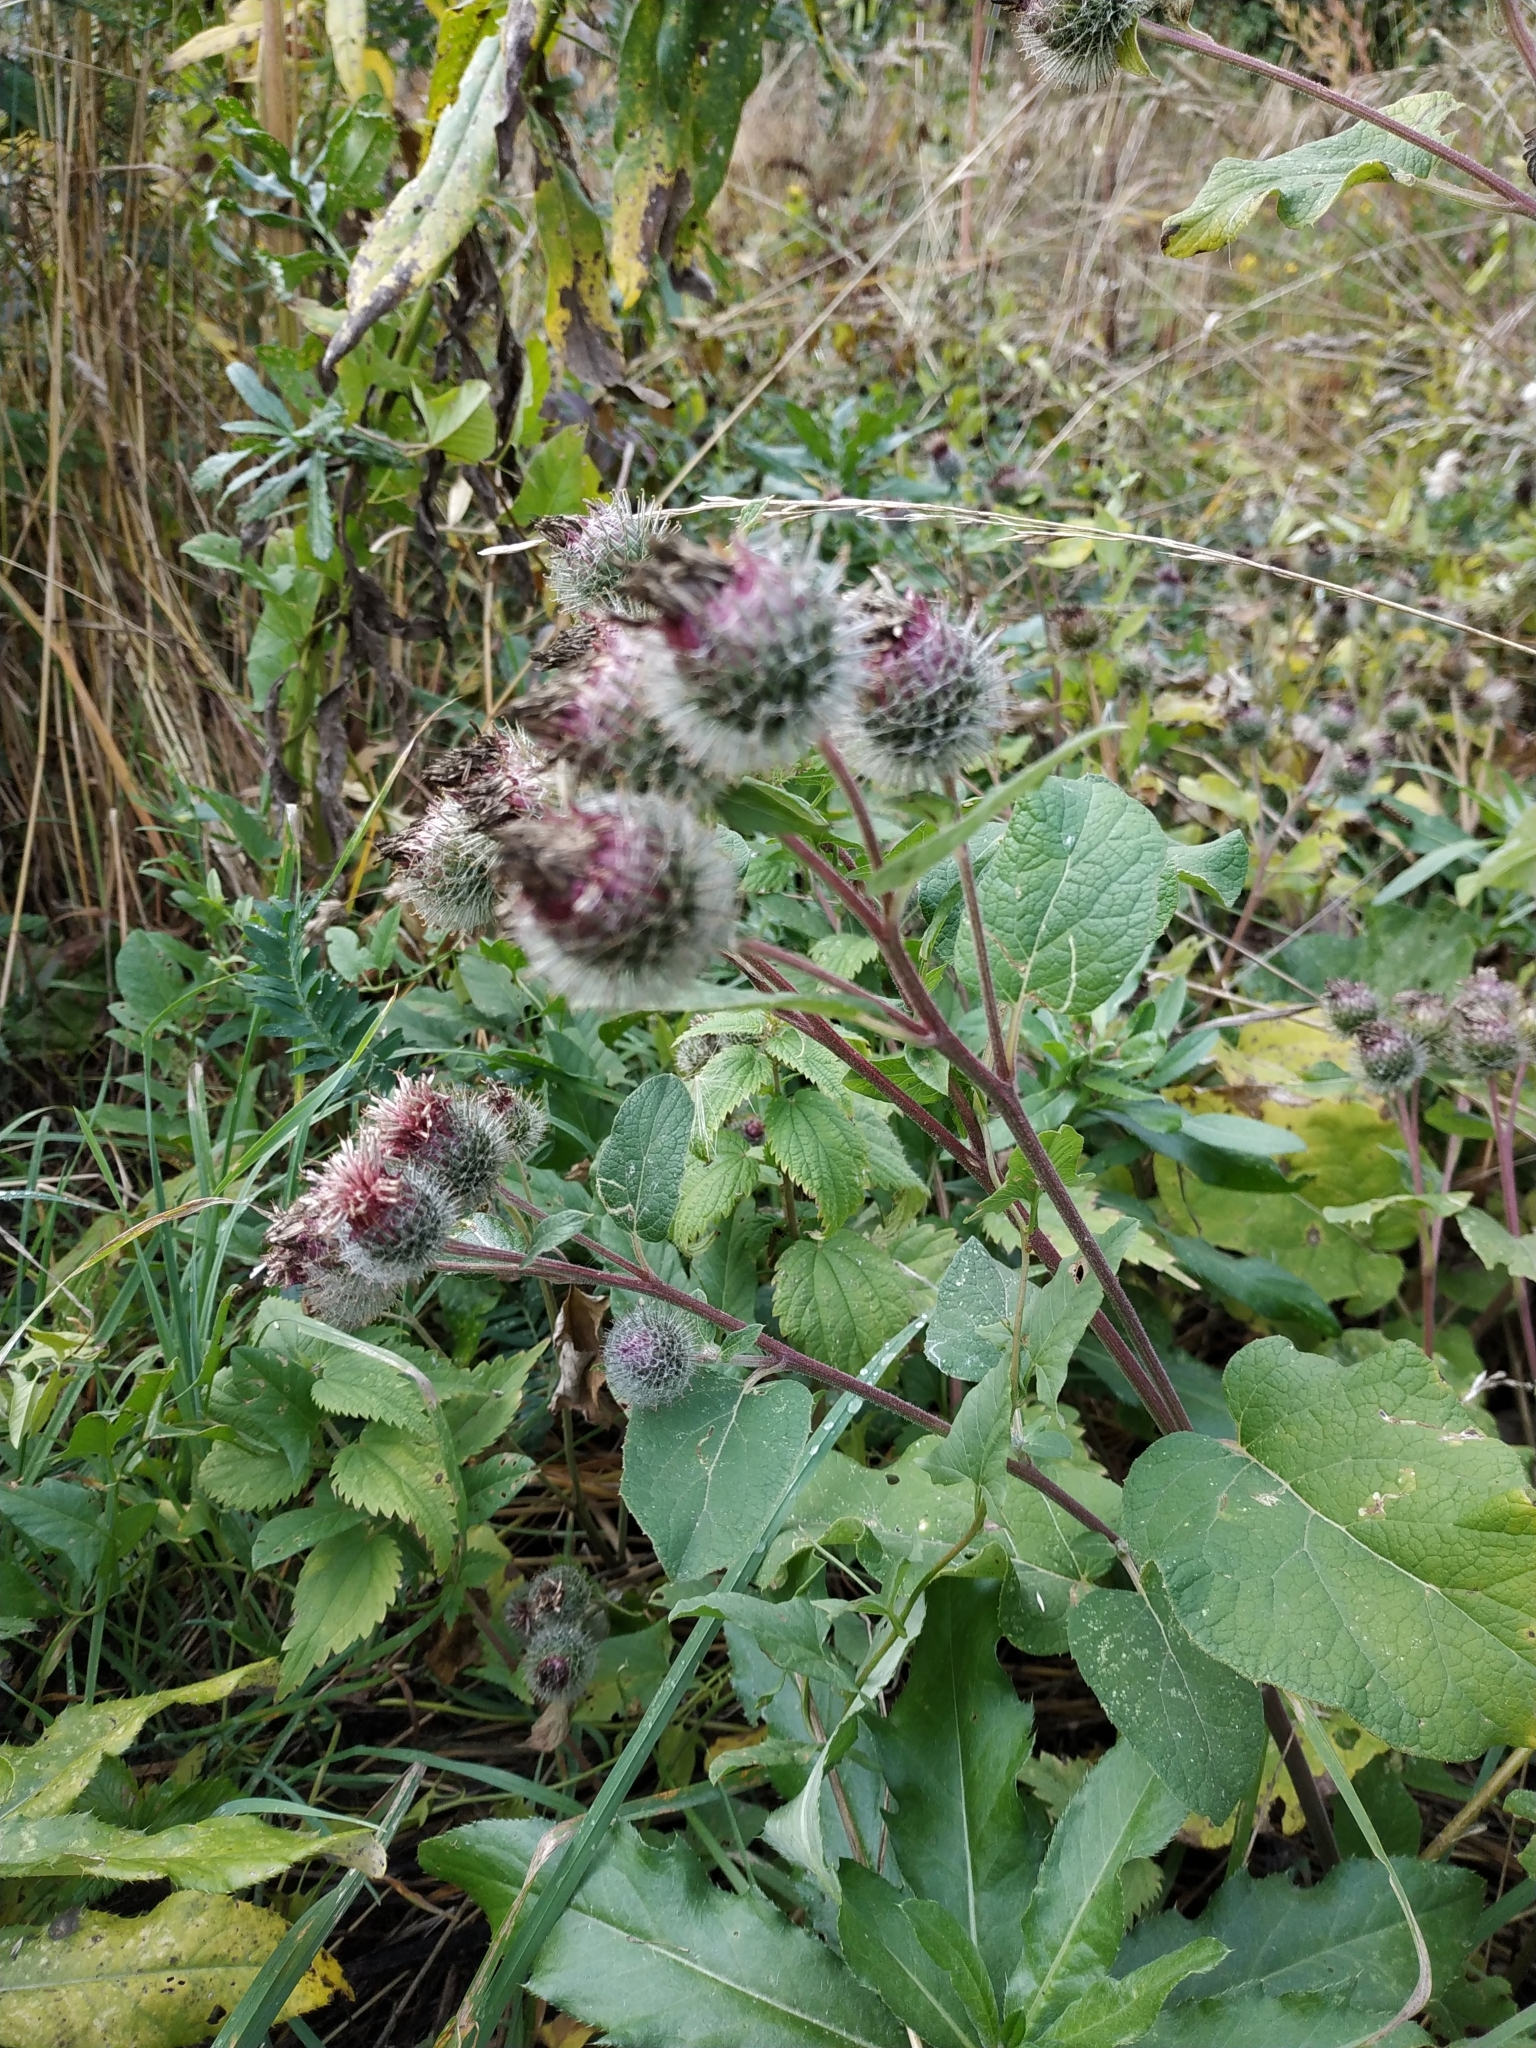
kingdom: Plantae
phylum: Tracheophyta
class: Magnoliopsida
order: Asterales
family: Asteraceae
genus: Arctium
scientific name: Arctium tomentosum
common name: Woolly burdock
